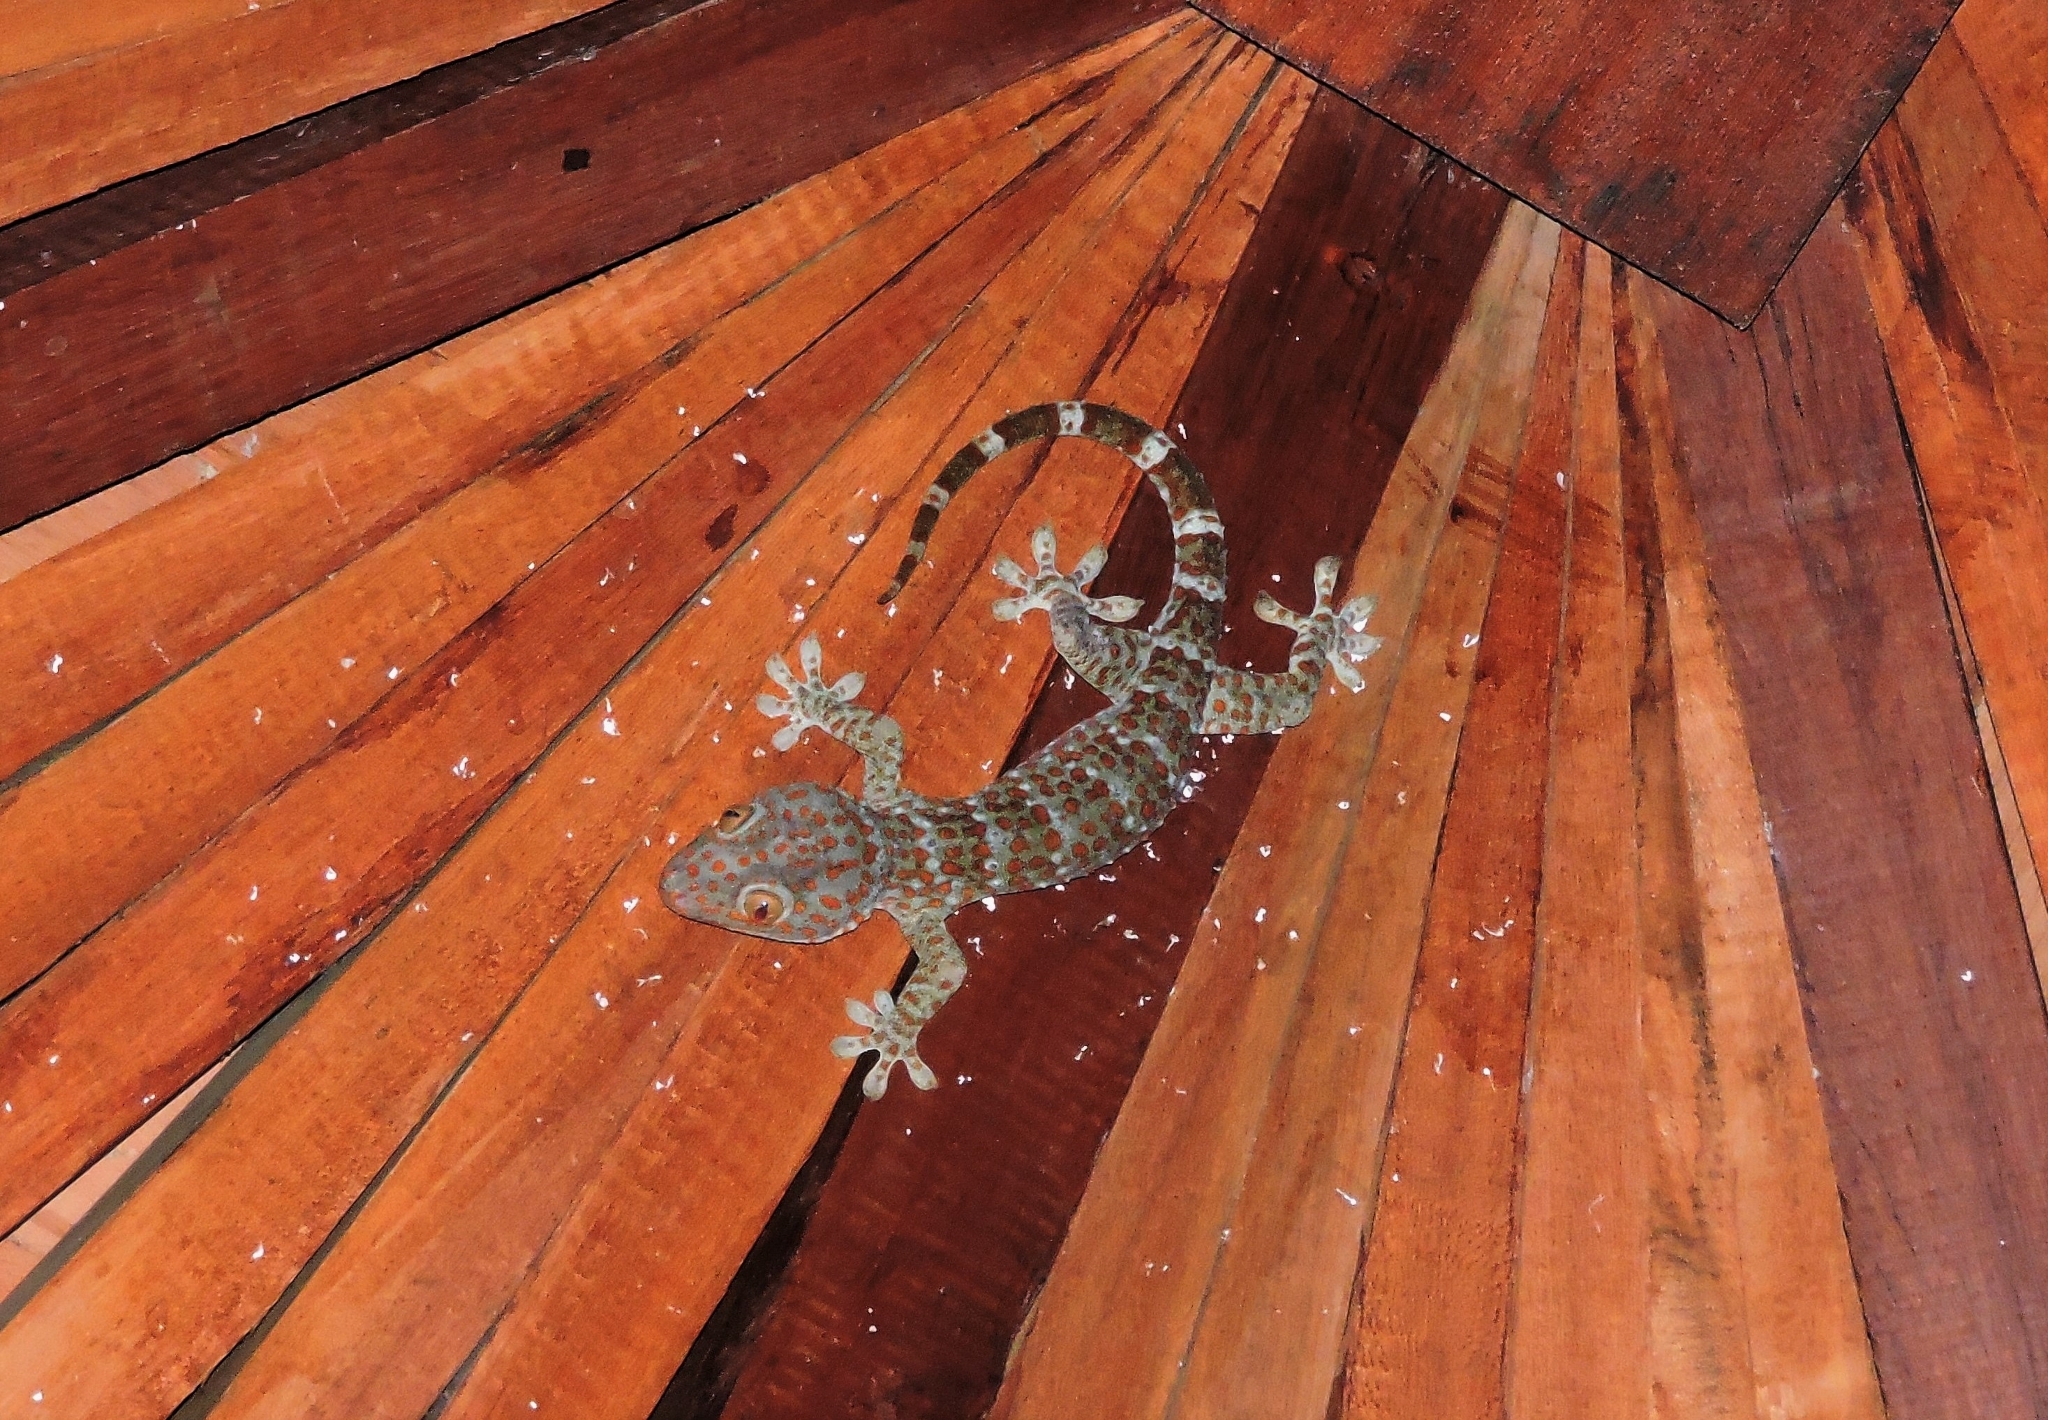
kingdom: Animalia
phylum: Chordata
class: Squamata
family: Gekkonidae
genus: Gekko
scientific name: Gekko gecko
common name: Tokay gecko
